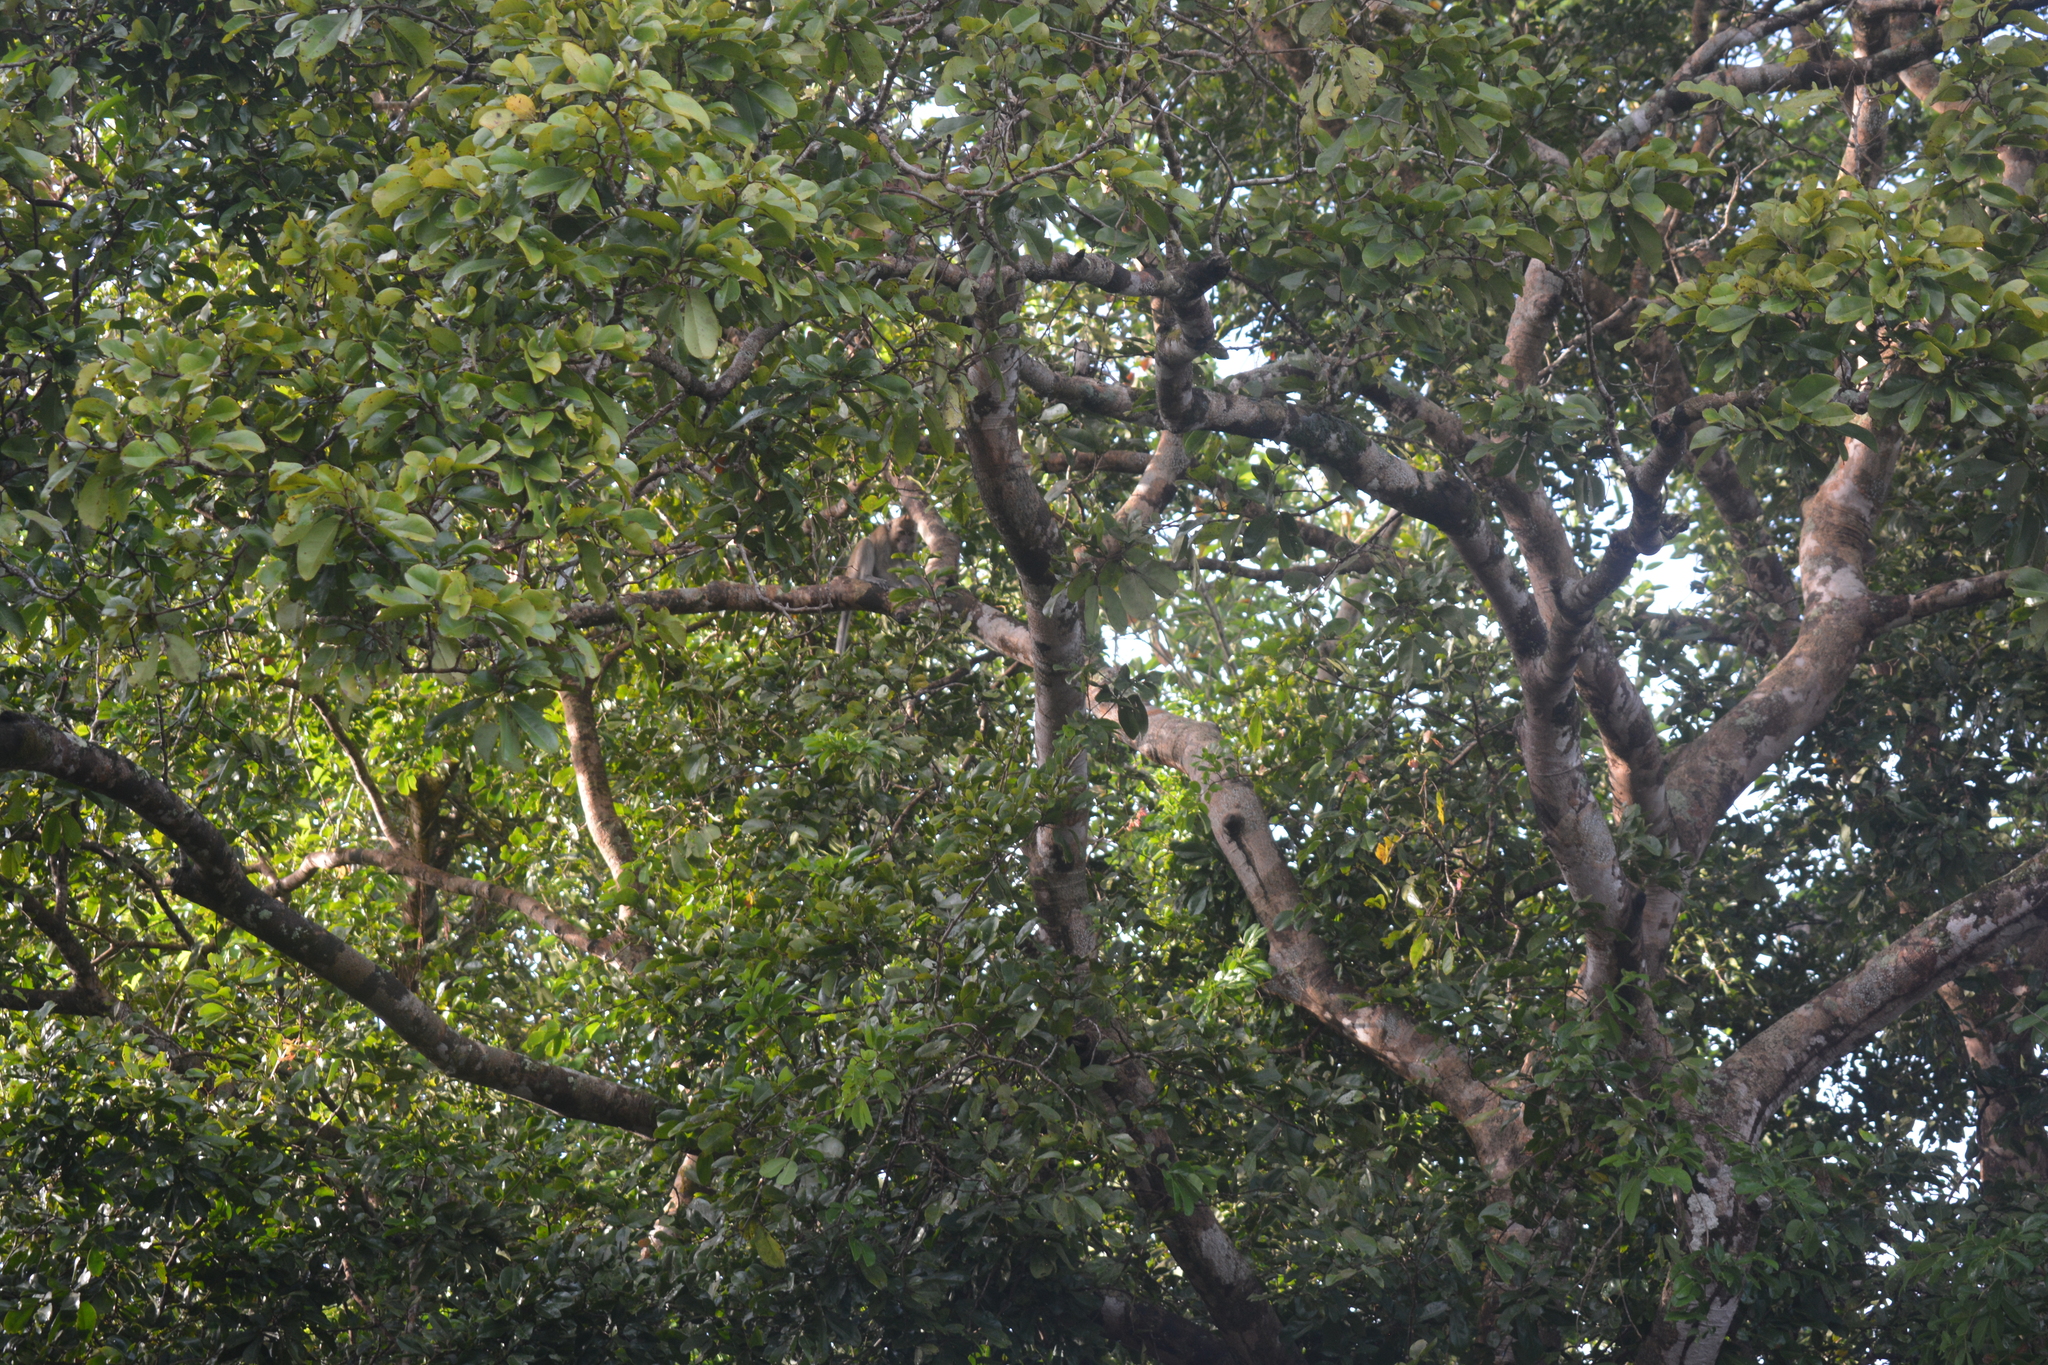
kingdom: Animalia
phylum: Chordata
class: Mammalia
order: Primates
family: Cercopithecidae
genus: Macaca
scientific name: Macaca fascicularis
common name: Crab-eating macaque
